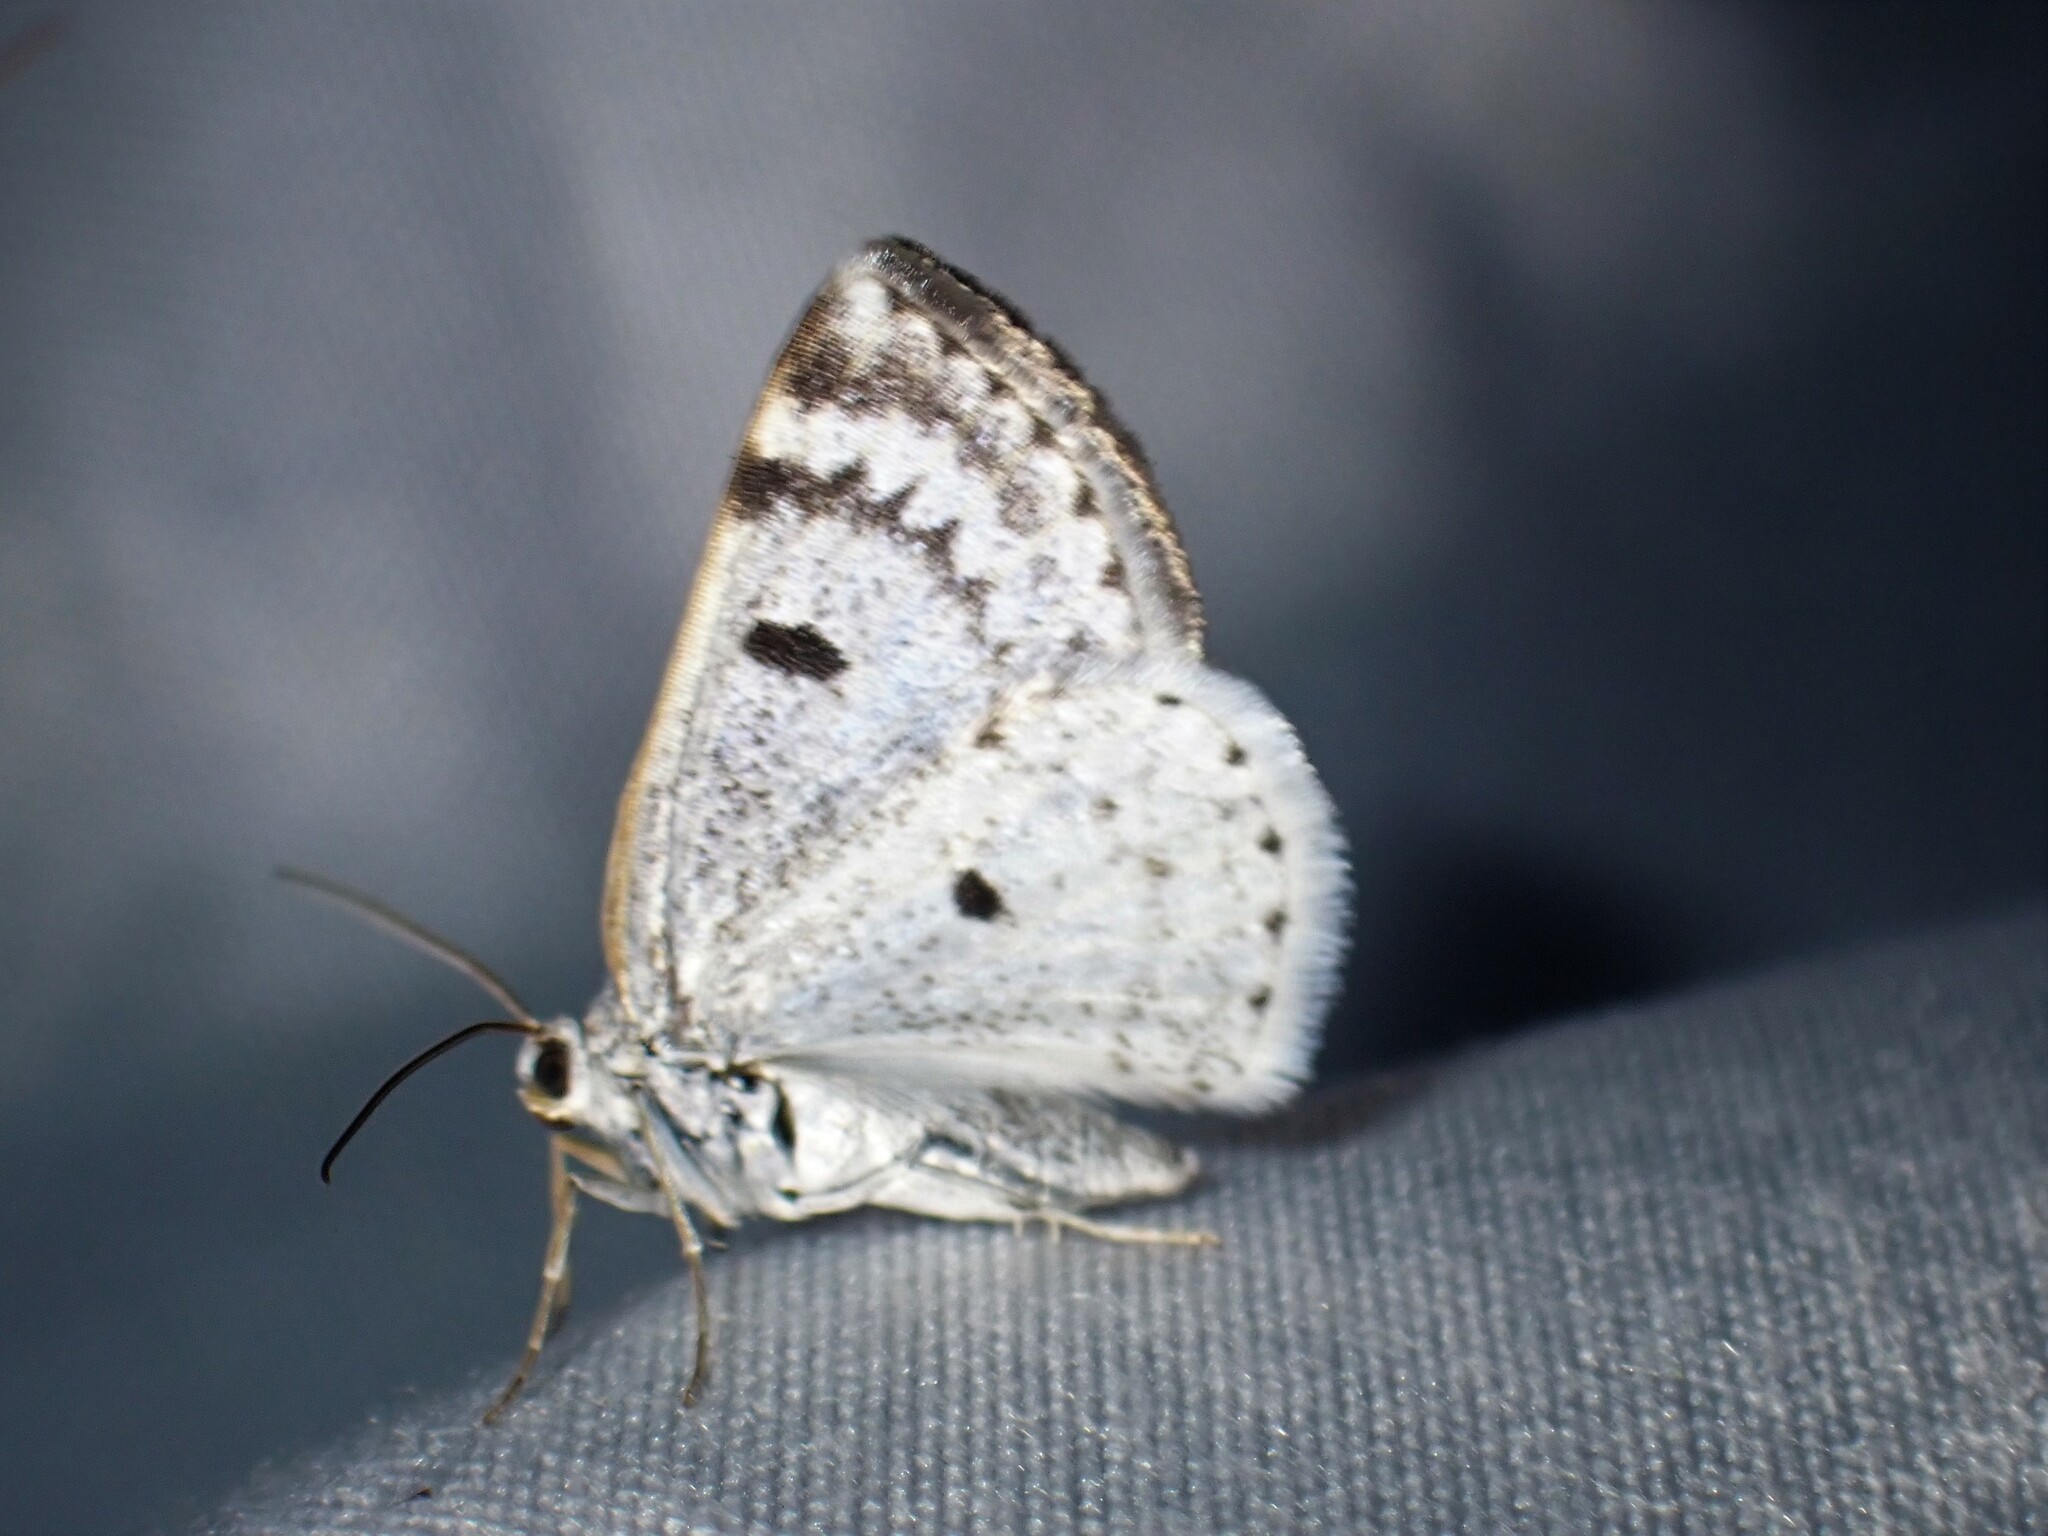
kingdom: Animalia
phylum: Arthropoda
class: Insecta
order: Lepidoptera
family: Geometridae
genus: Lomographa
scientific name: Lomographa semiclarata
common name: Bluish spring moth
